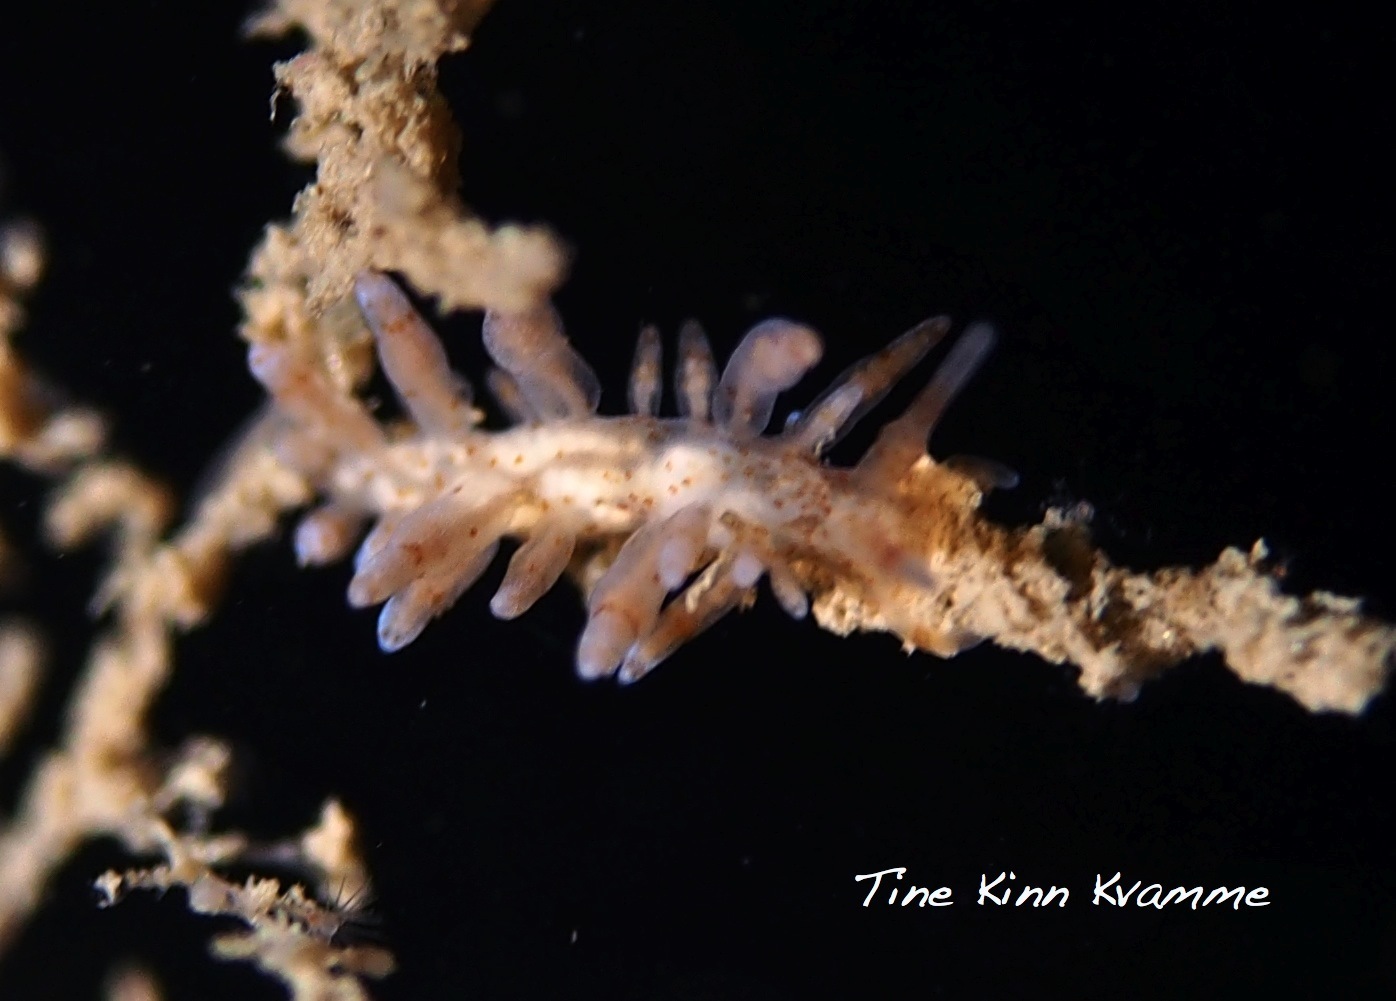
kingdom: Animalia
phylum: Mollusca
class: Gastropoda
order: Nudibranchia
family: Eubranchidae
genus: Eubranchus
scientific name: Eubranchus rupium
